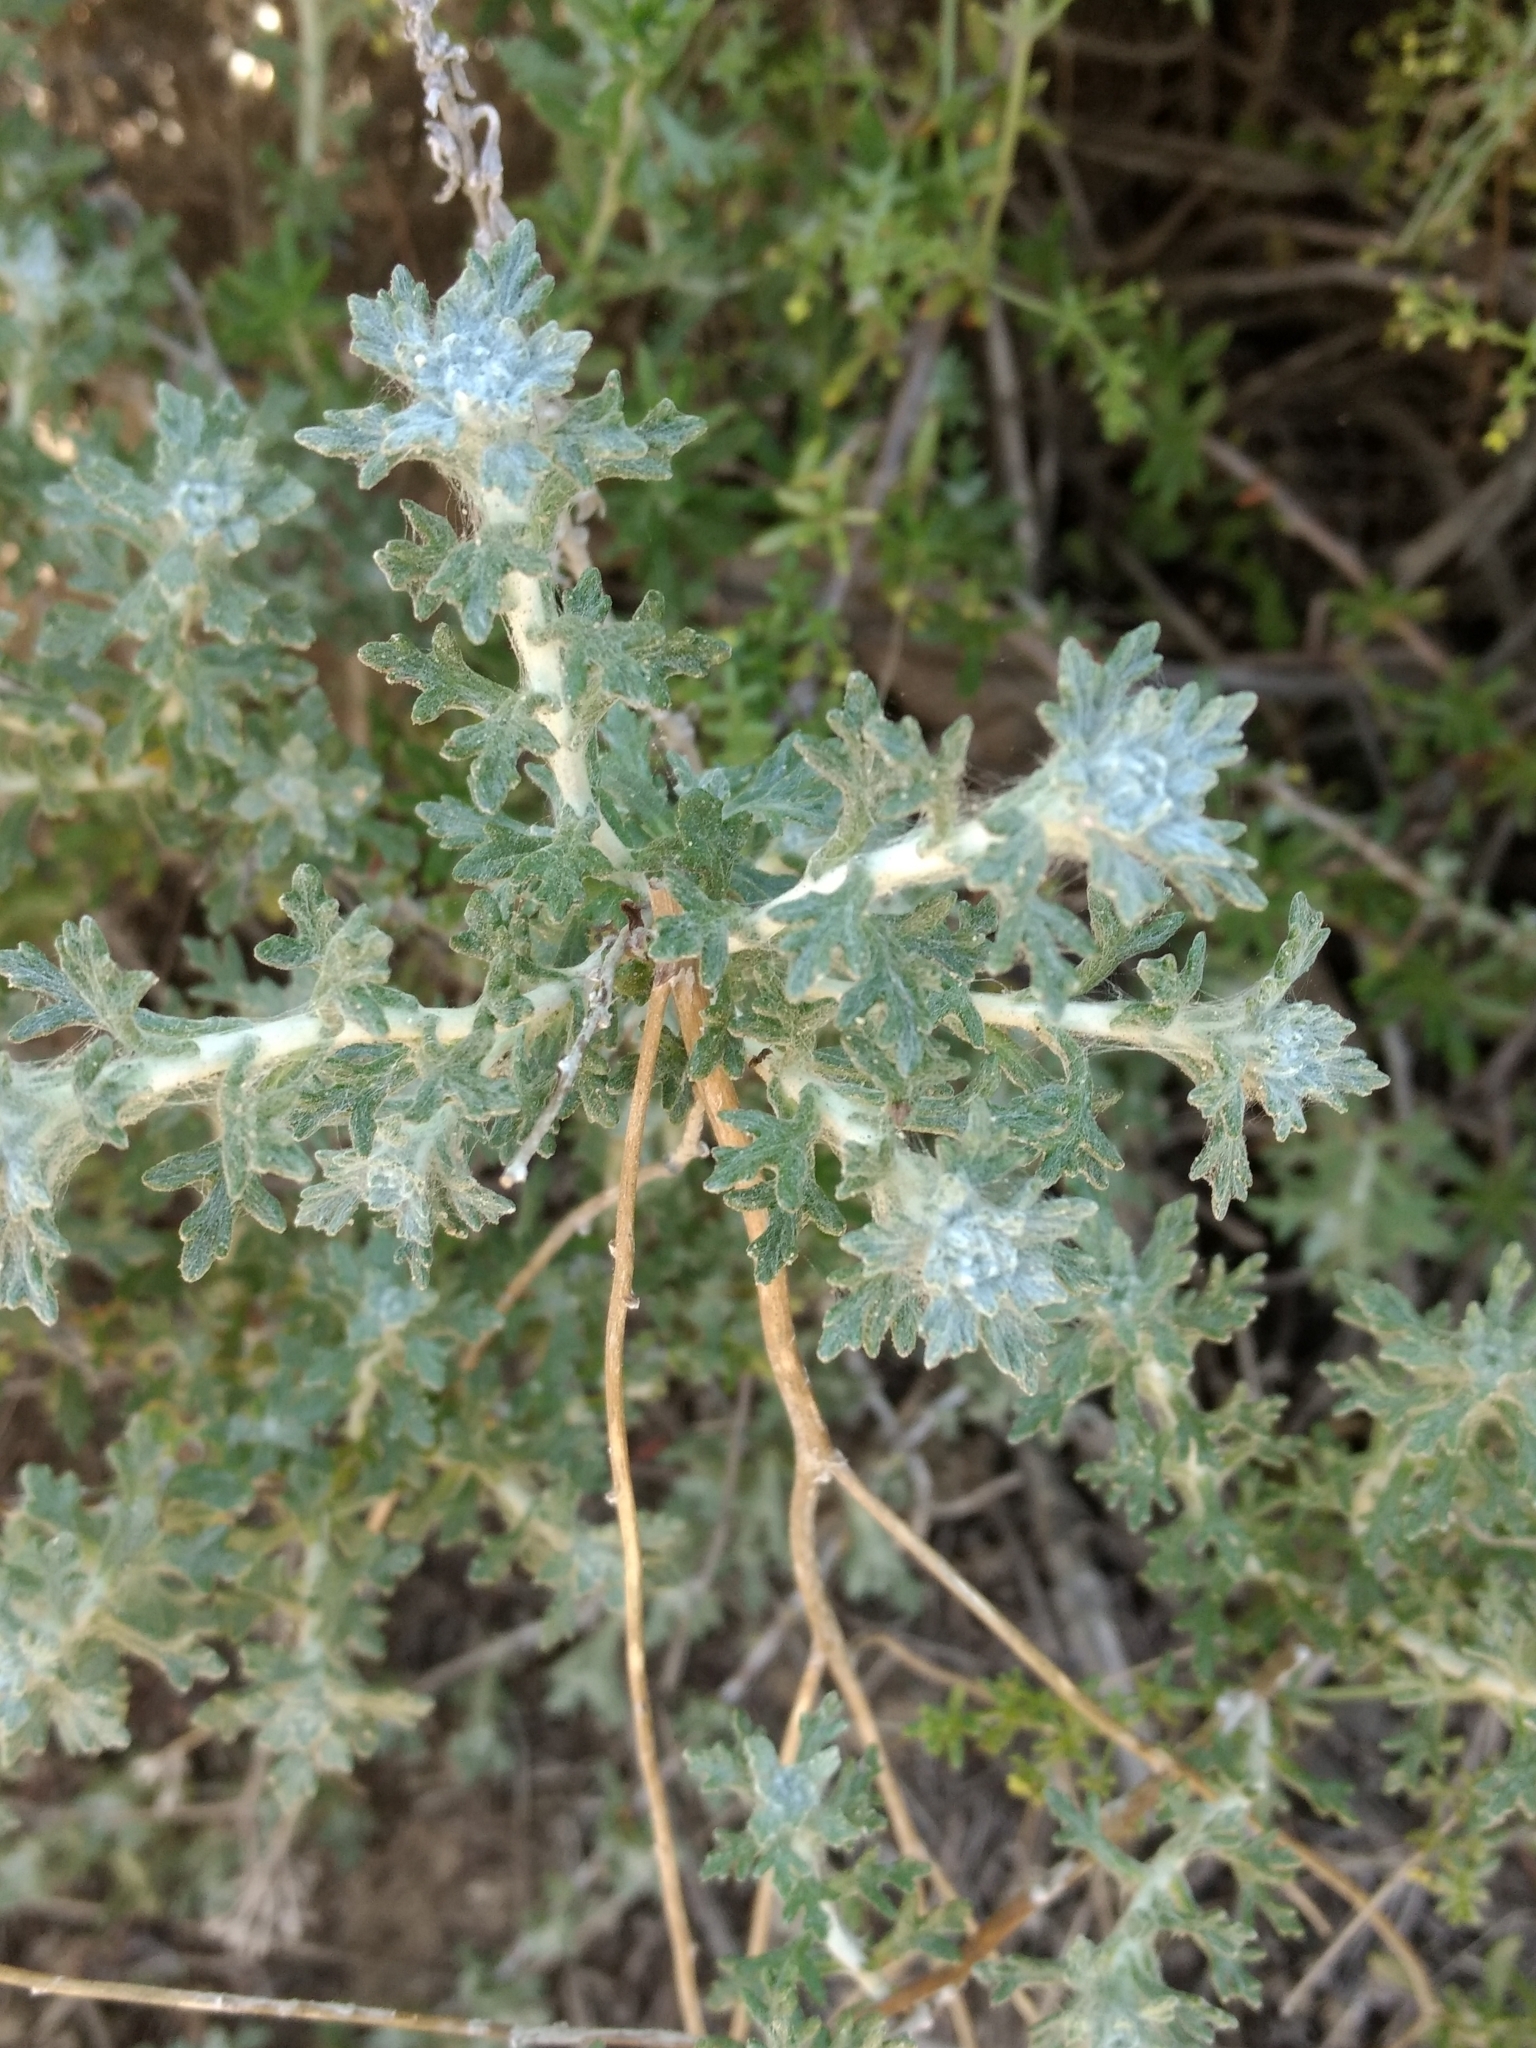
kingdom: Plantae
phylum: Tracheophyta
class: Magnoliopsida
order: Asterales
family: Asteraceae
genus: Eriophyllum
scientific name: Eriophyllum confertiflorum
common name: Golden-yarrow
